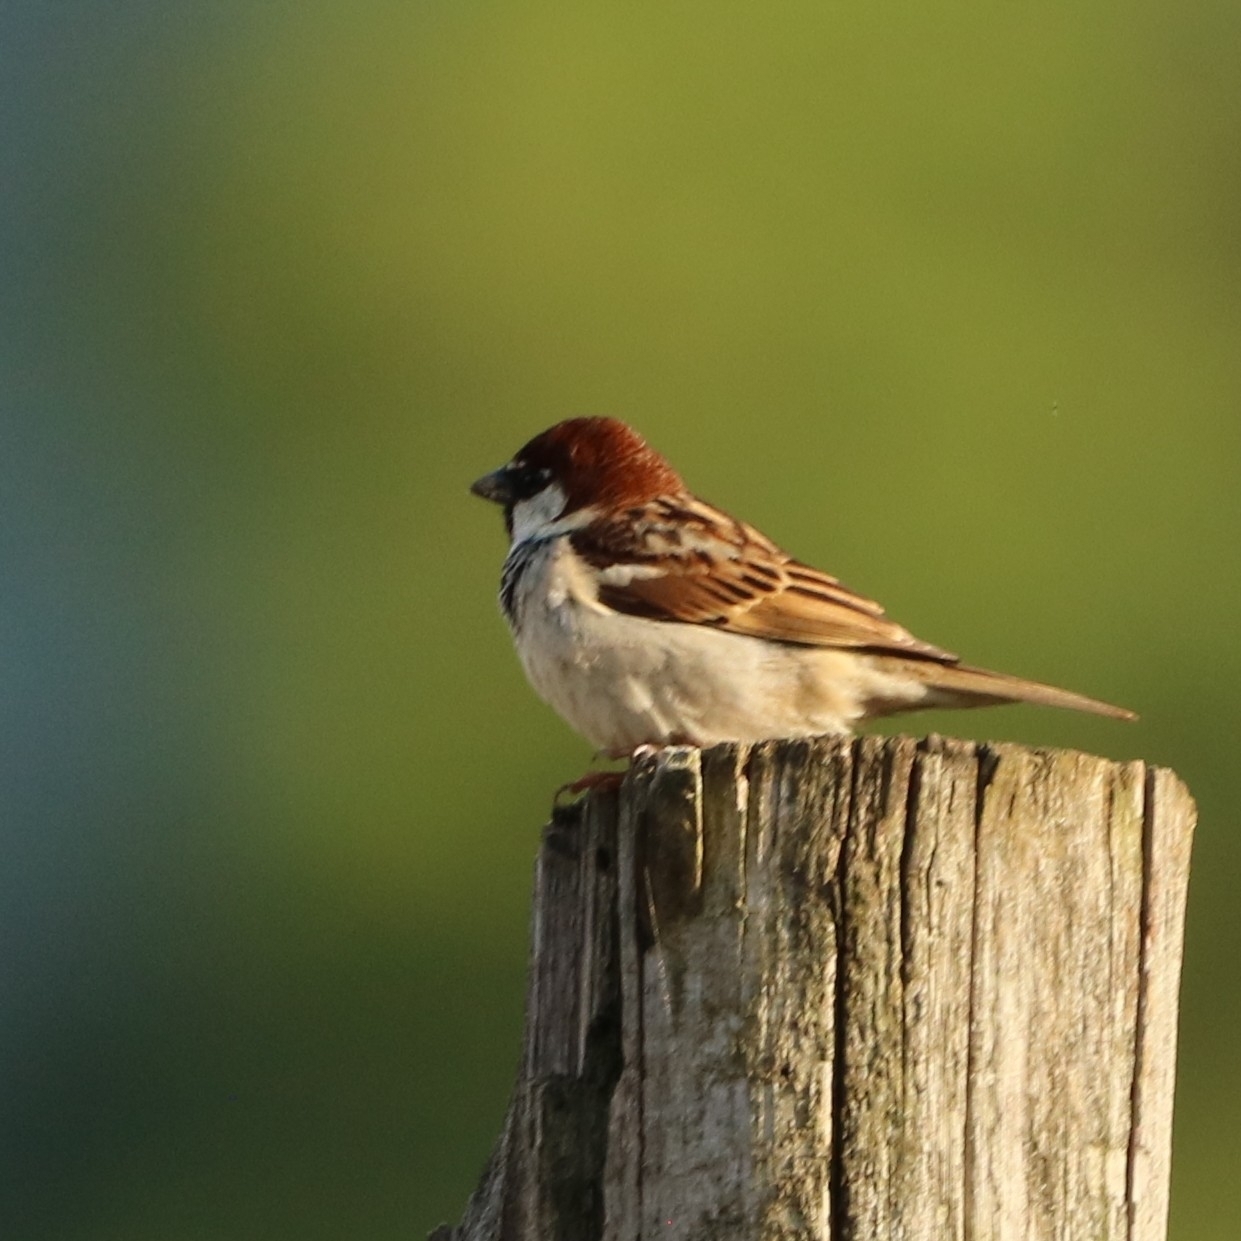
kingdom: Animalia
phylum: Chordata
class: Aves
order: Passeriformes
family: Passeridae
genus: Passer
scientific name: Passer italiae
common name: Italian sparrow
